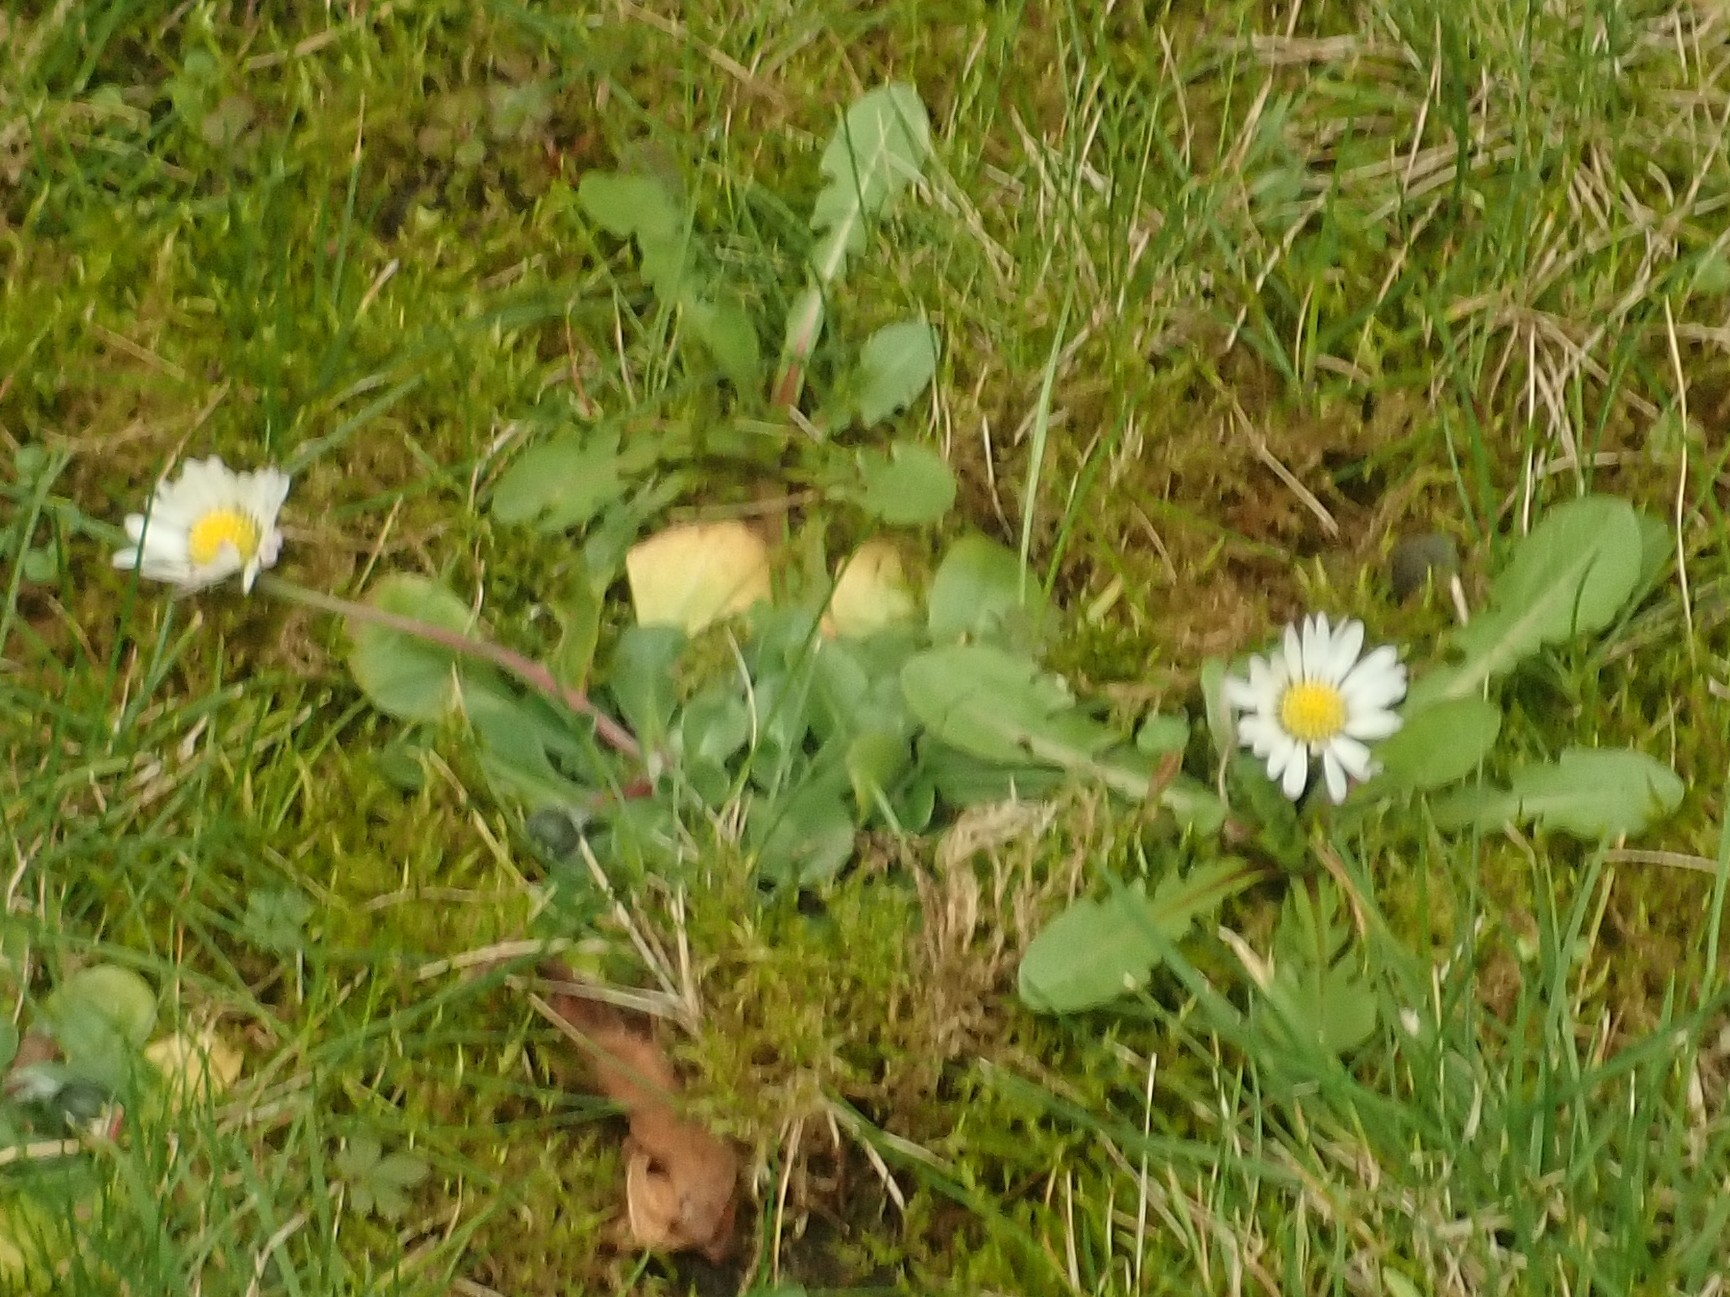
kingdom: Plantae
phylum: Tracheophyta
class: Magnoliopsida
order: Asterales
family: Asteraceae
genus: Bellis
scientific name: Bellis perennis
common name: Lawndaisy
